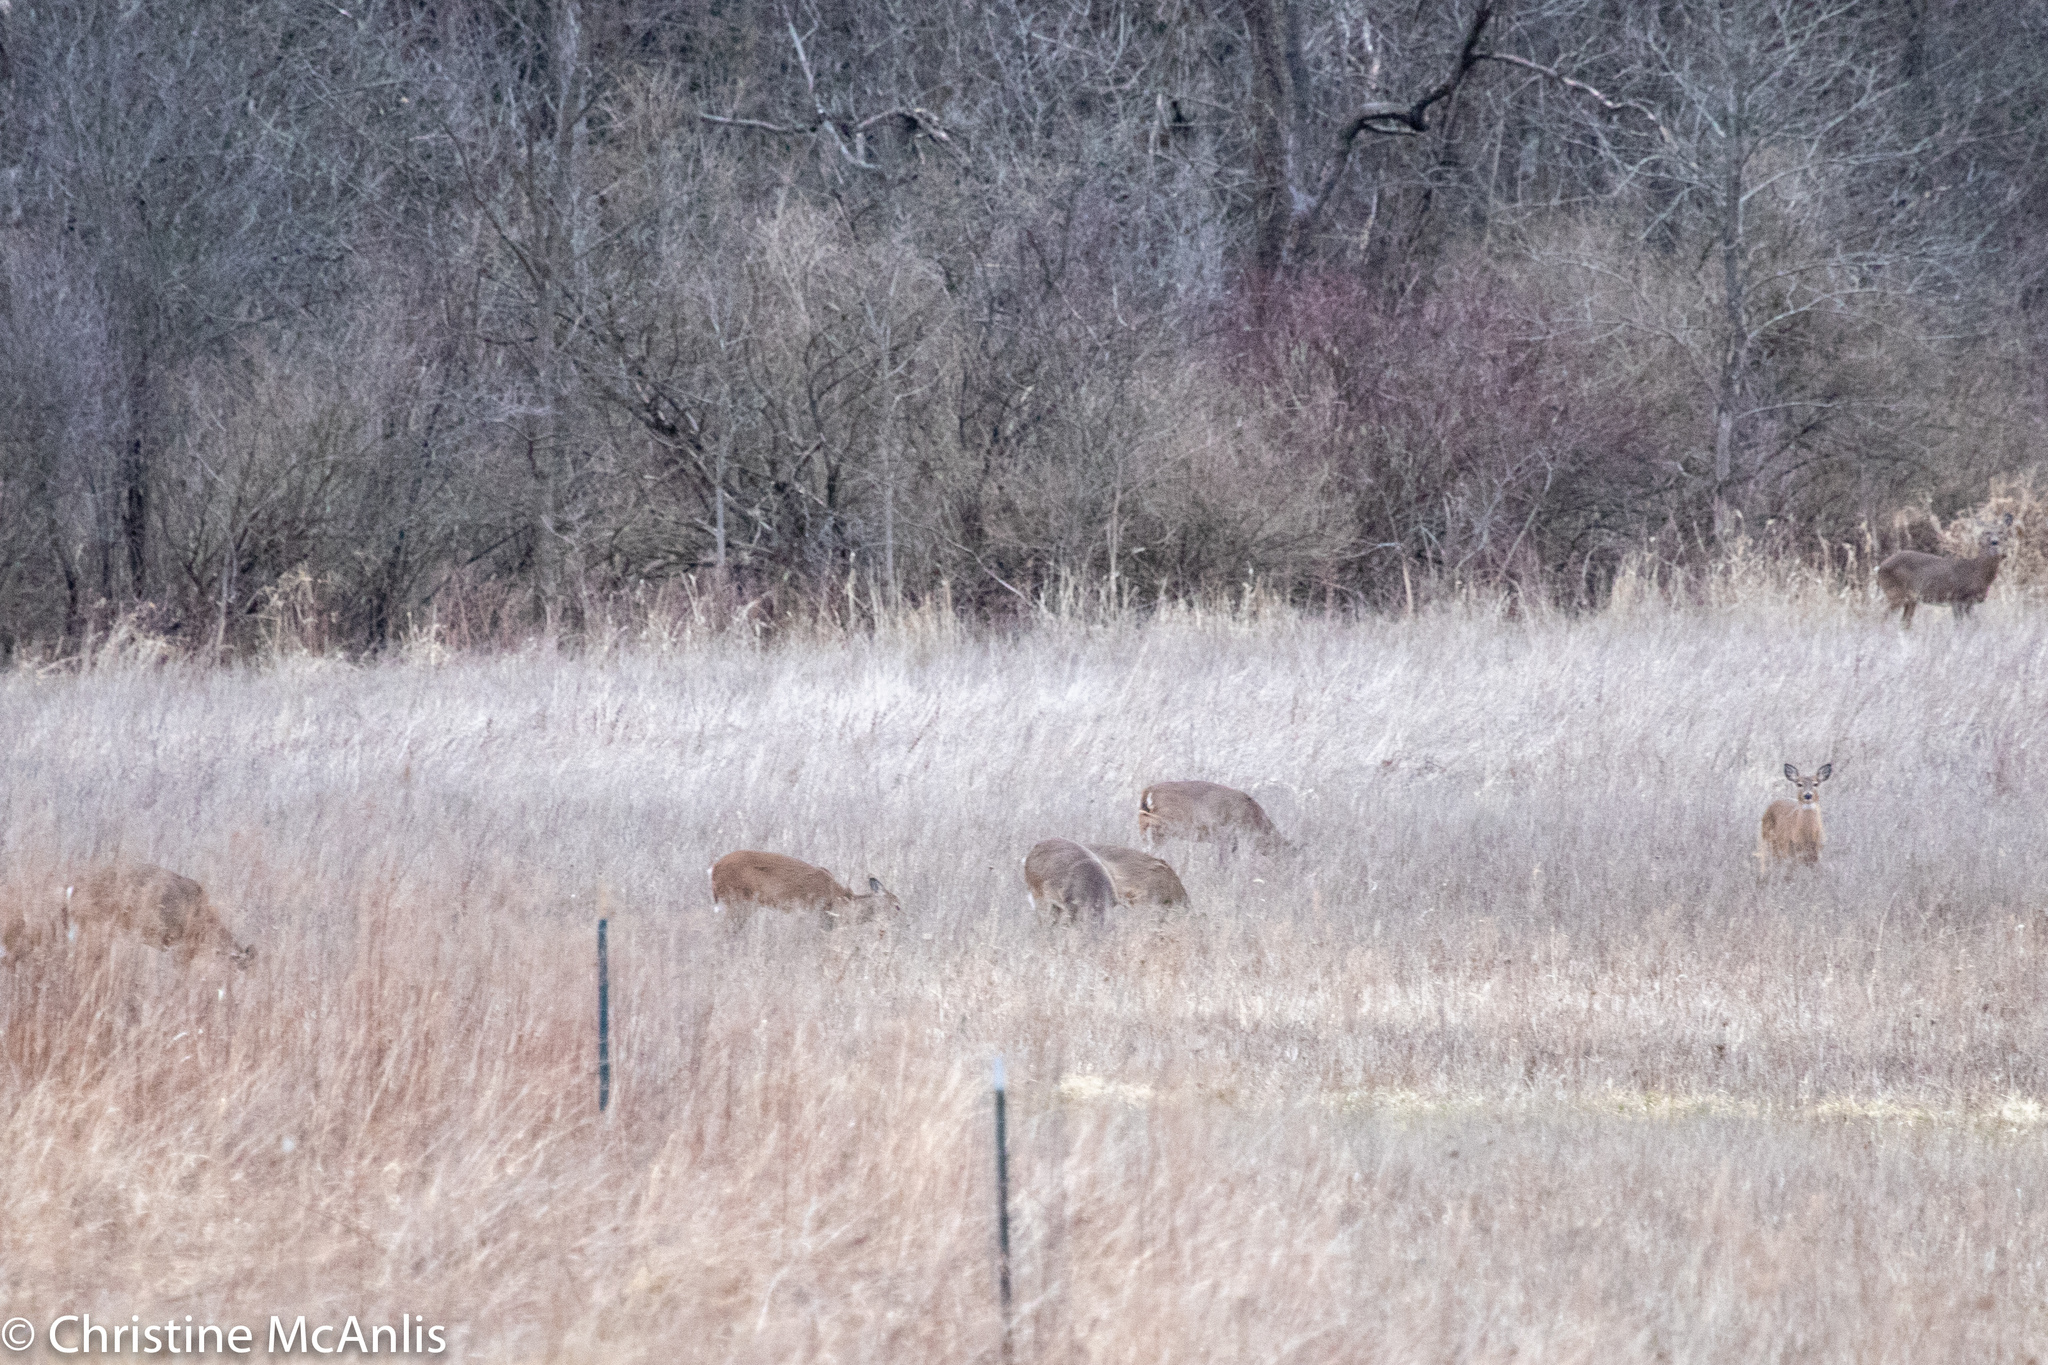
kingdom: Animalia
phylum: Chordata
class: Mammalia
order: Artiodactyla
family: Cervidae
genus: Odocoileus
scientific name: Odocoileus virginianus
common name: White-tailed deer
